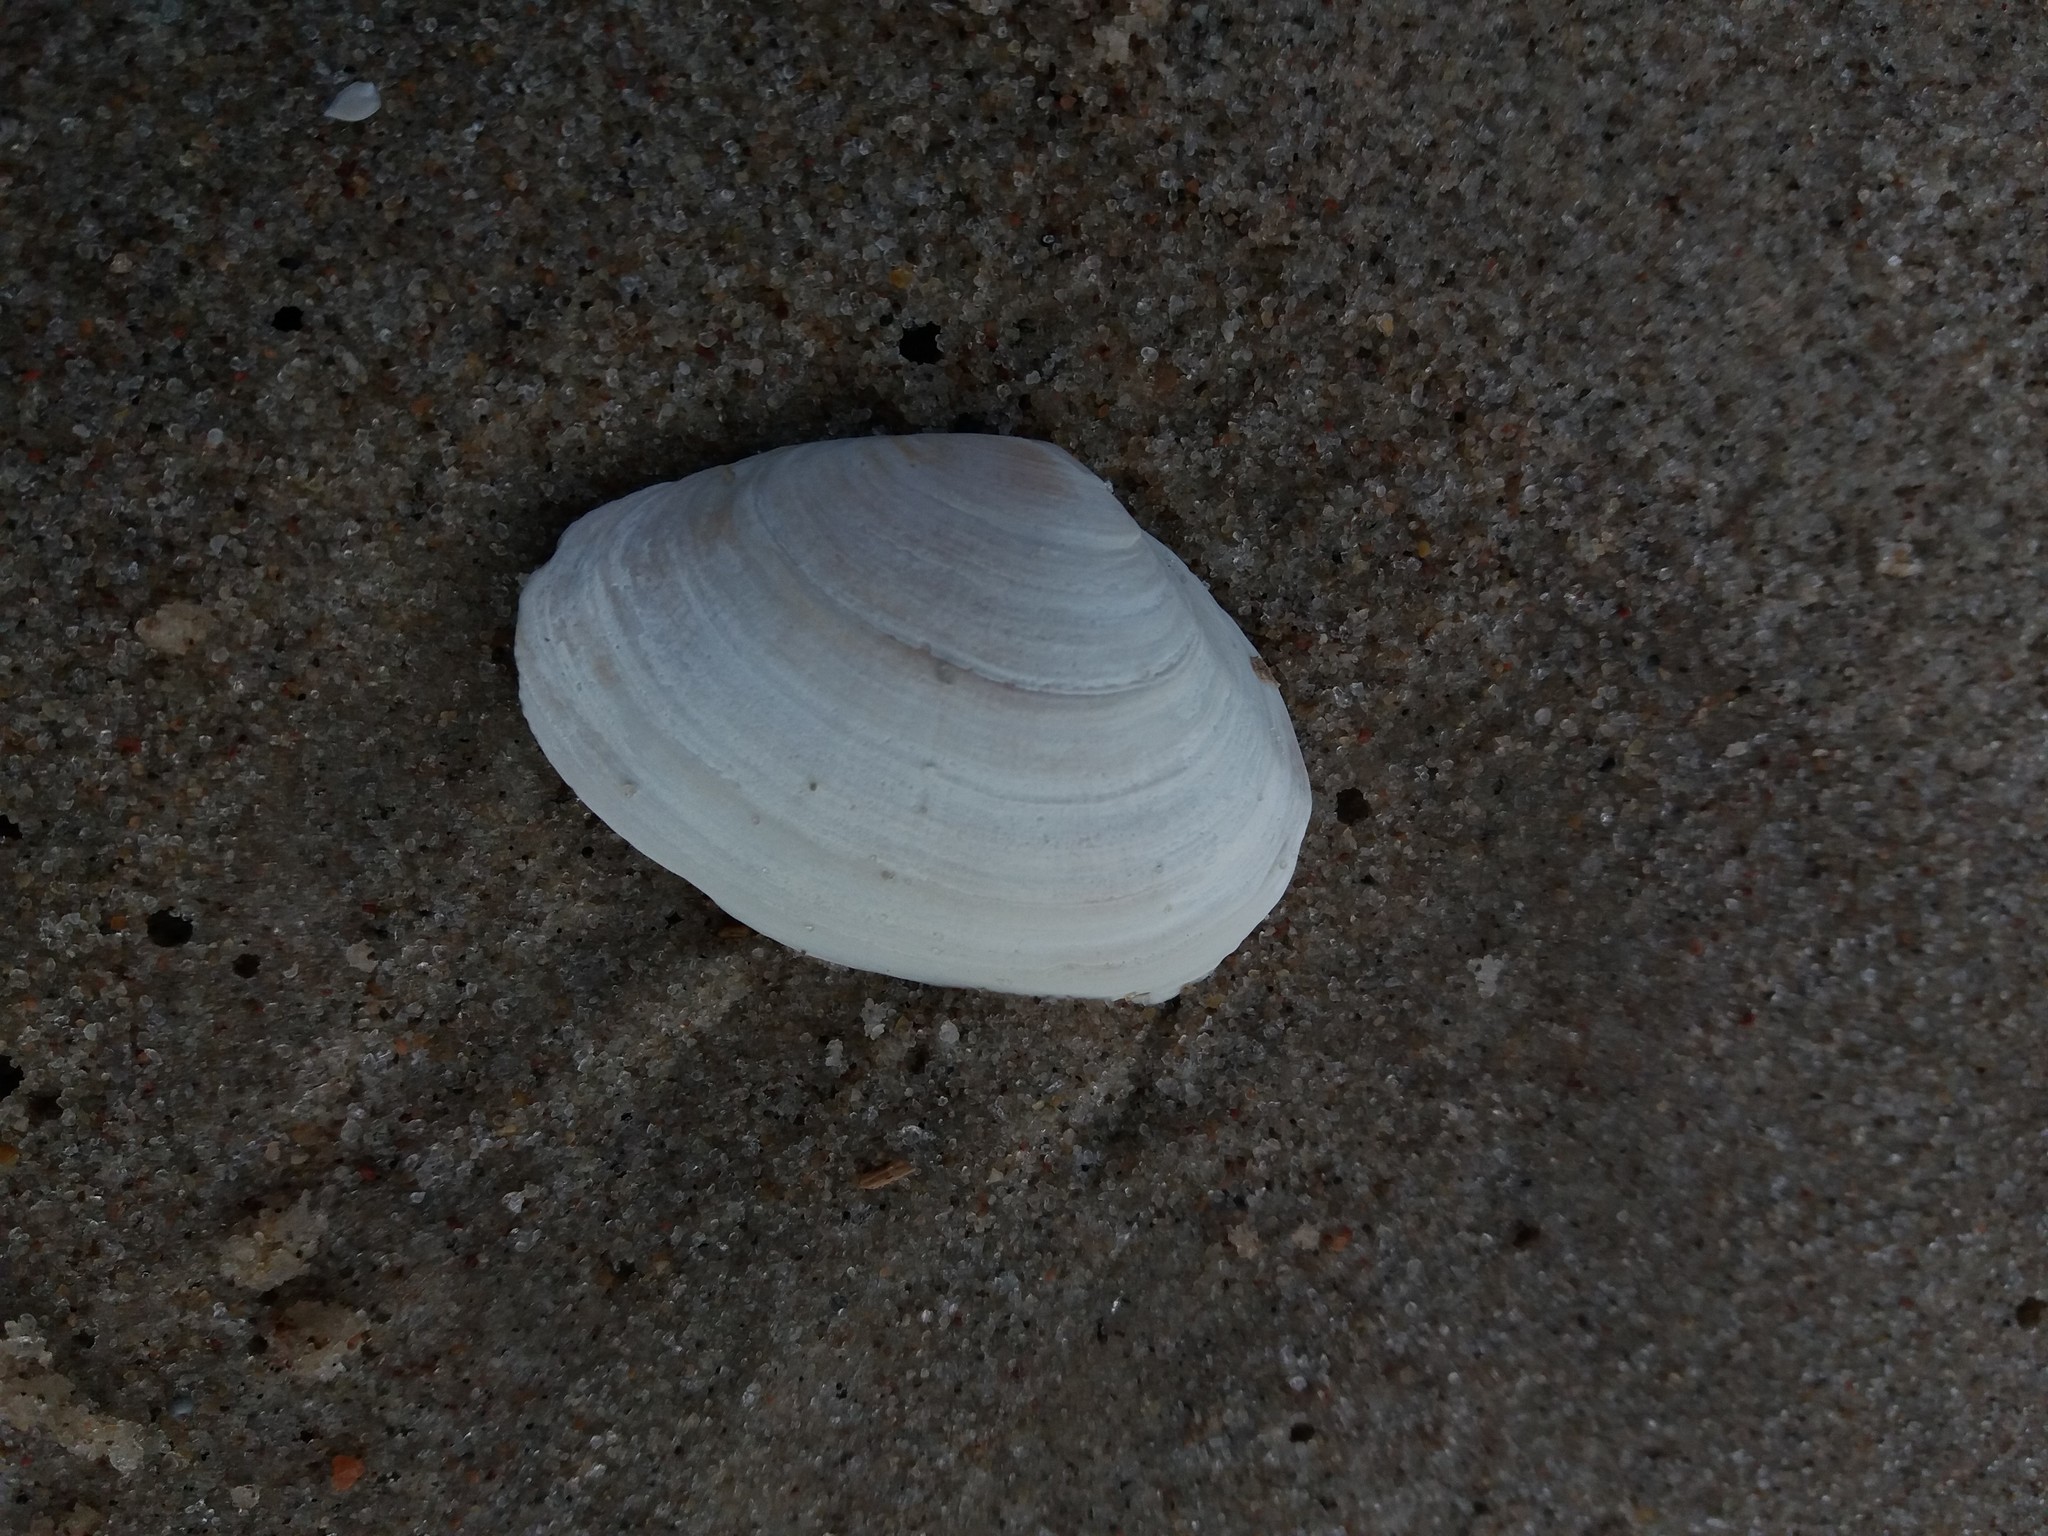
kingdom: Animalia
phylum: Mollusca
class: Bivalvia
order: Myida
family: Myidae
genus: Mya
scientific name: Mya arenaria
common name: Soft-shelled clam
